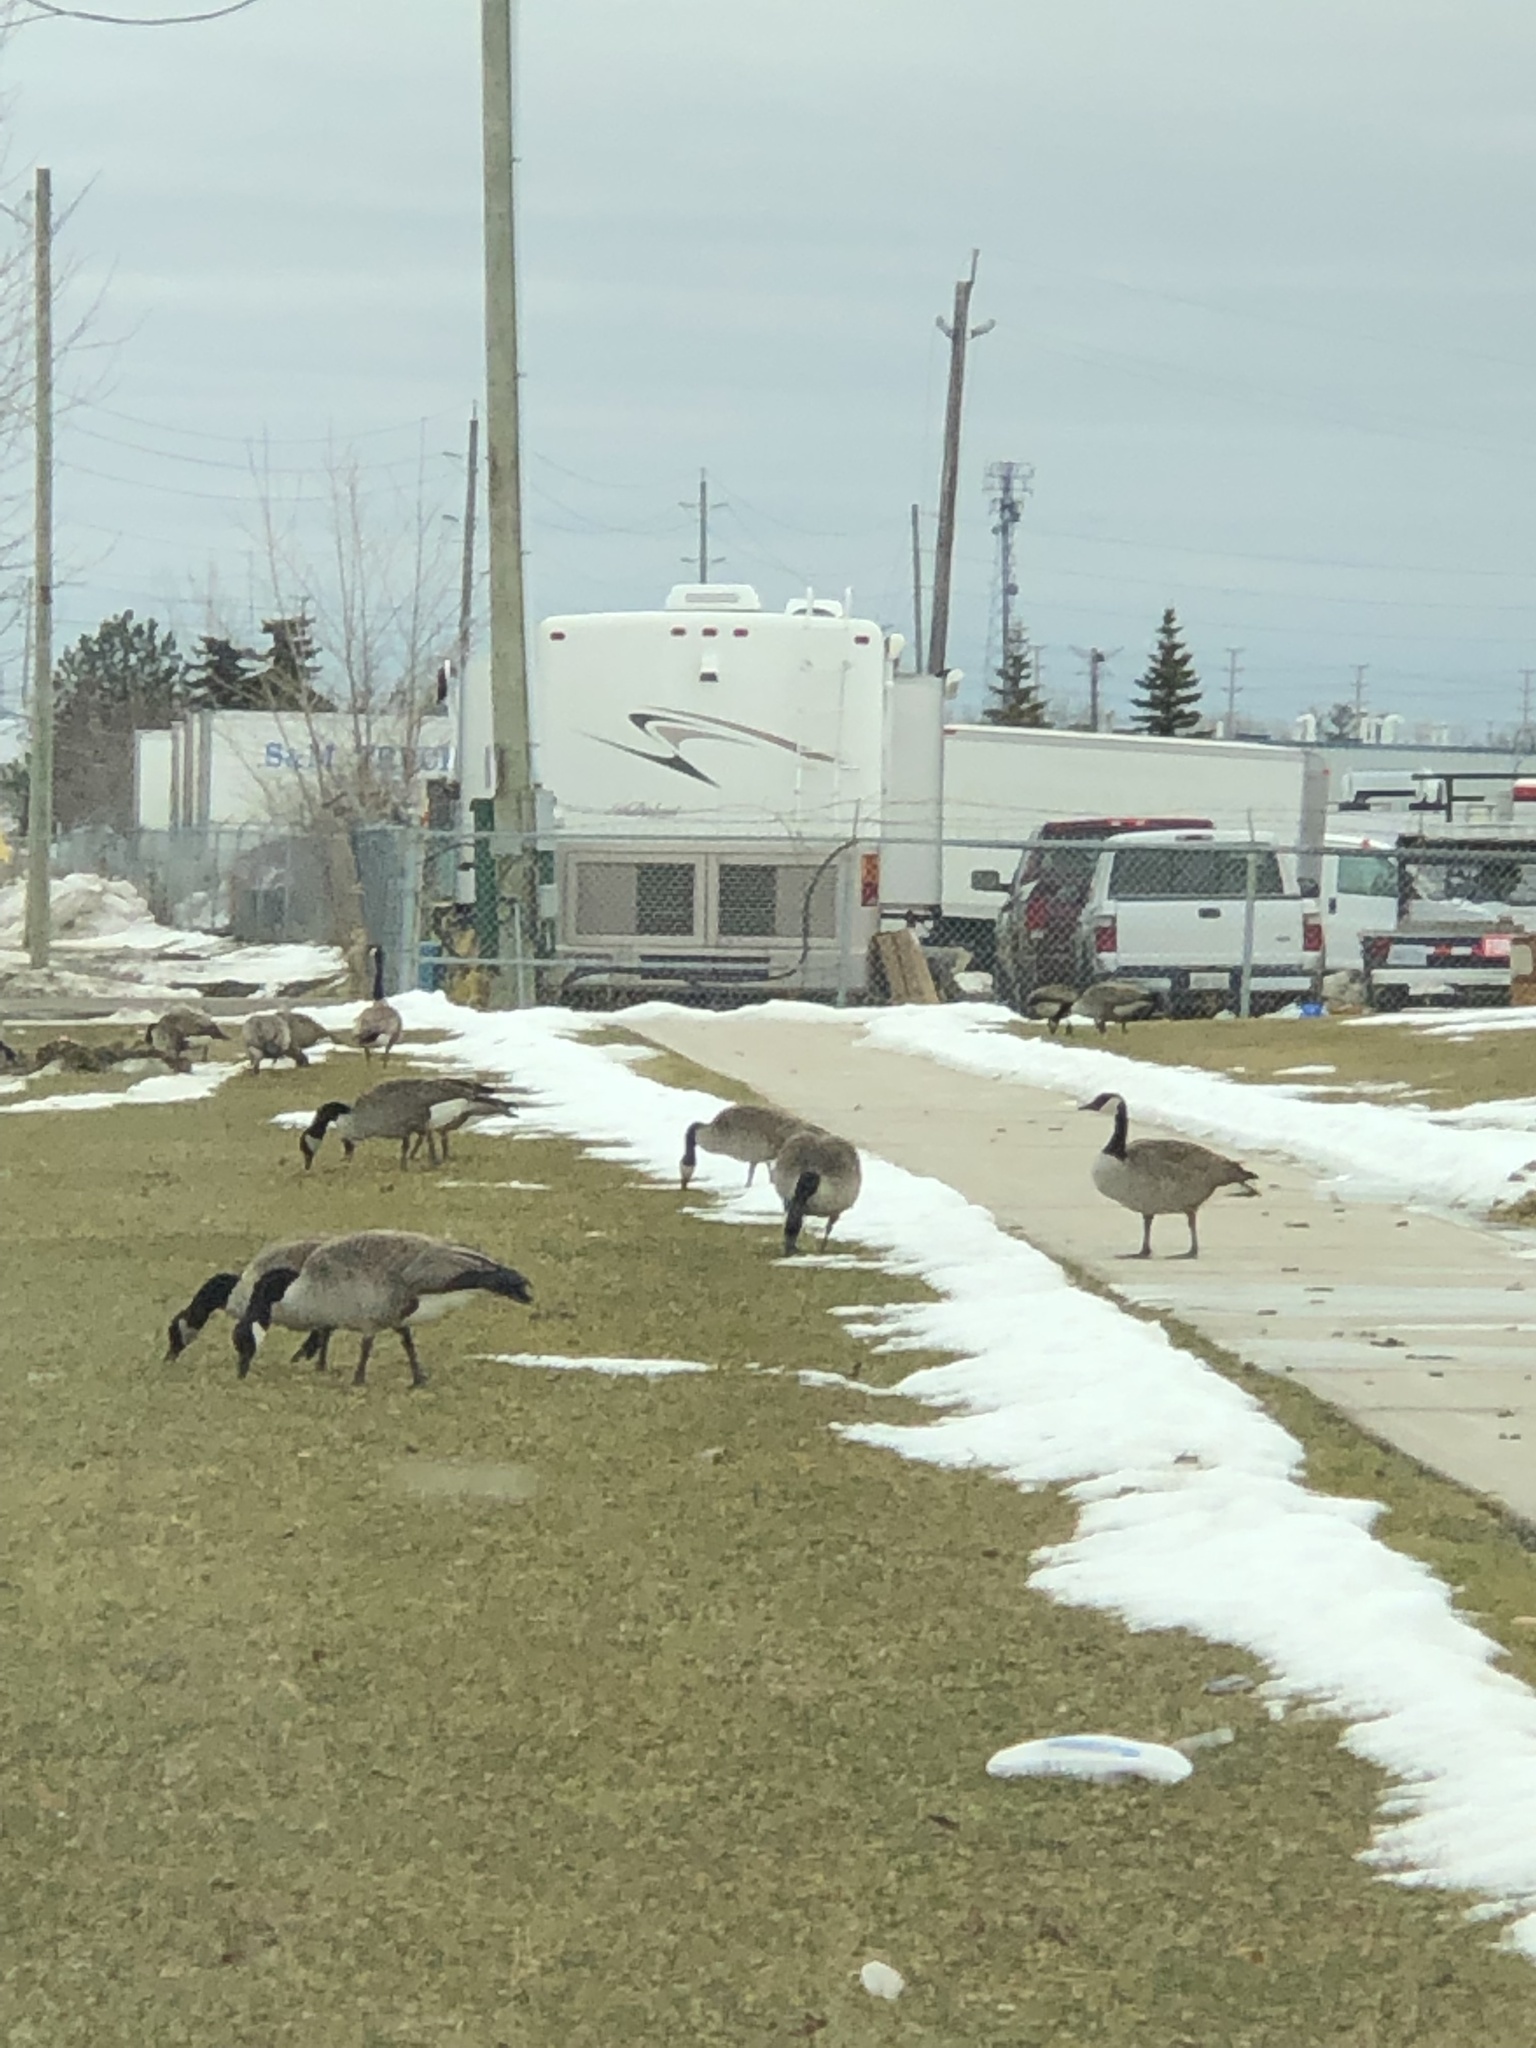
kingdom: Animalia
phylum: Chordata
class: Aves
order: Anseriformes
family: Anatidae
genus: Branta
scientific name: Branta canadensis
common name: Canada goose
